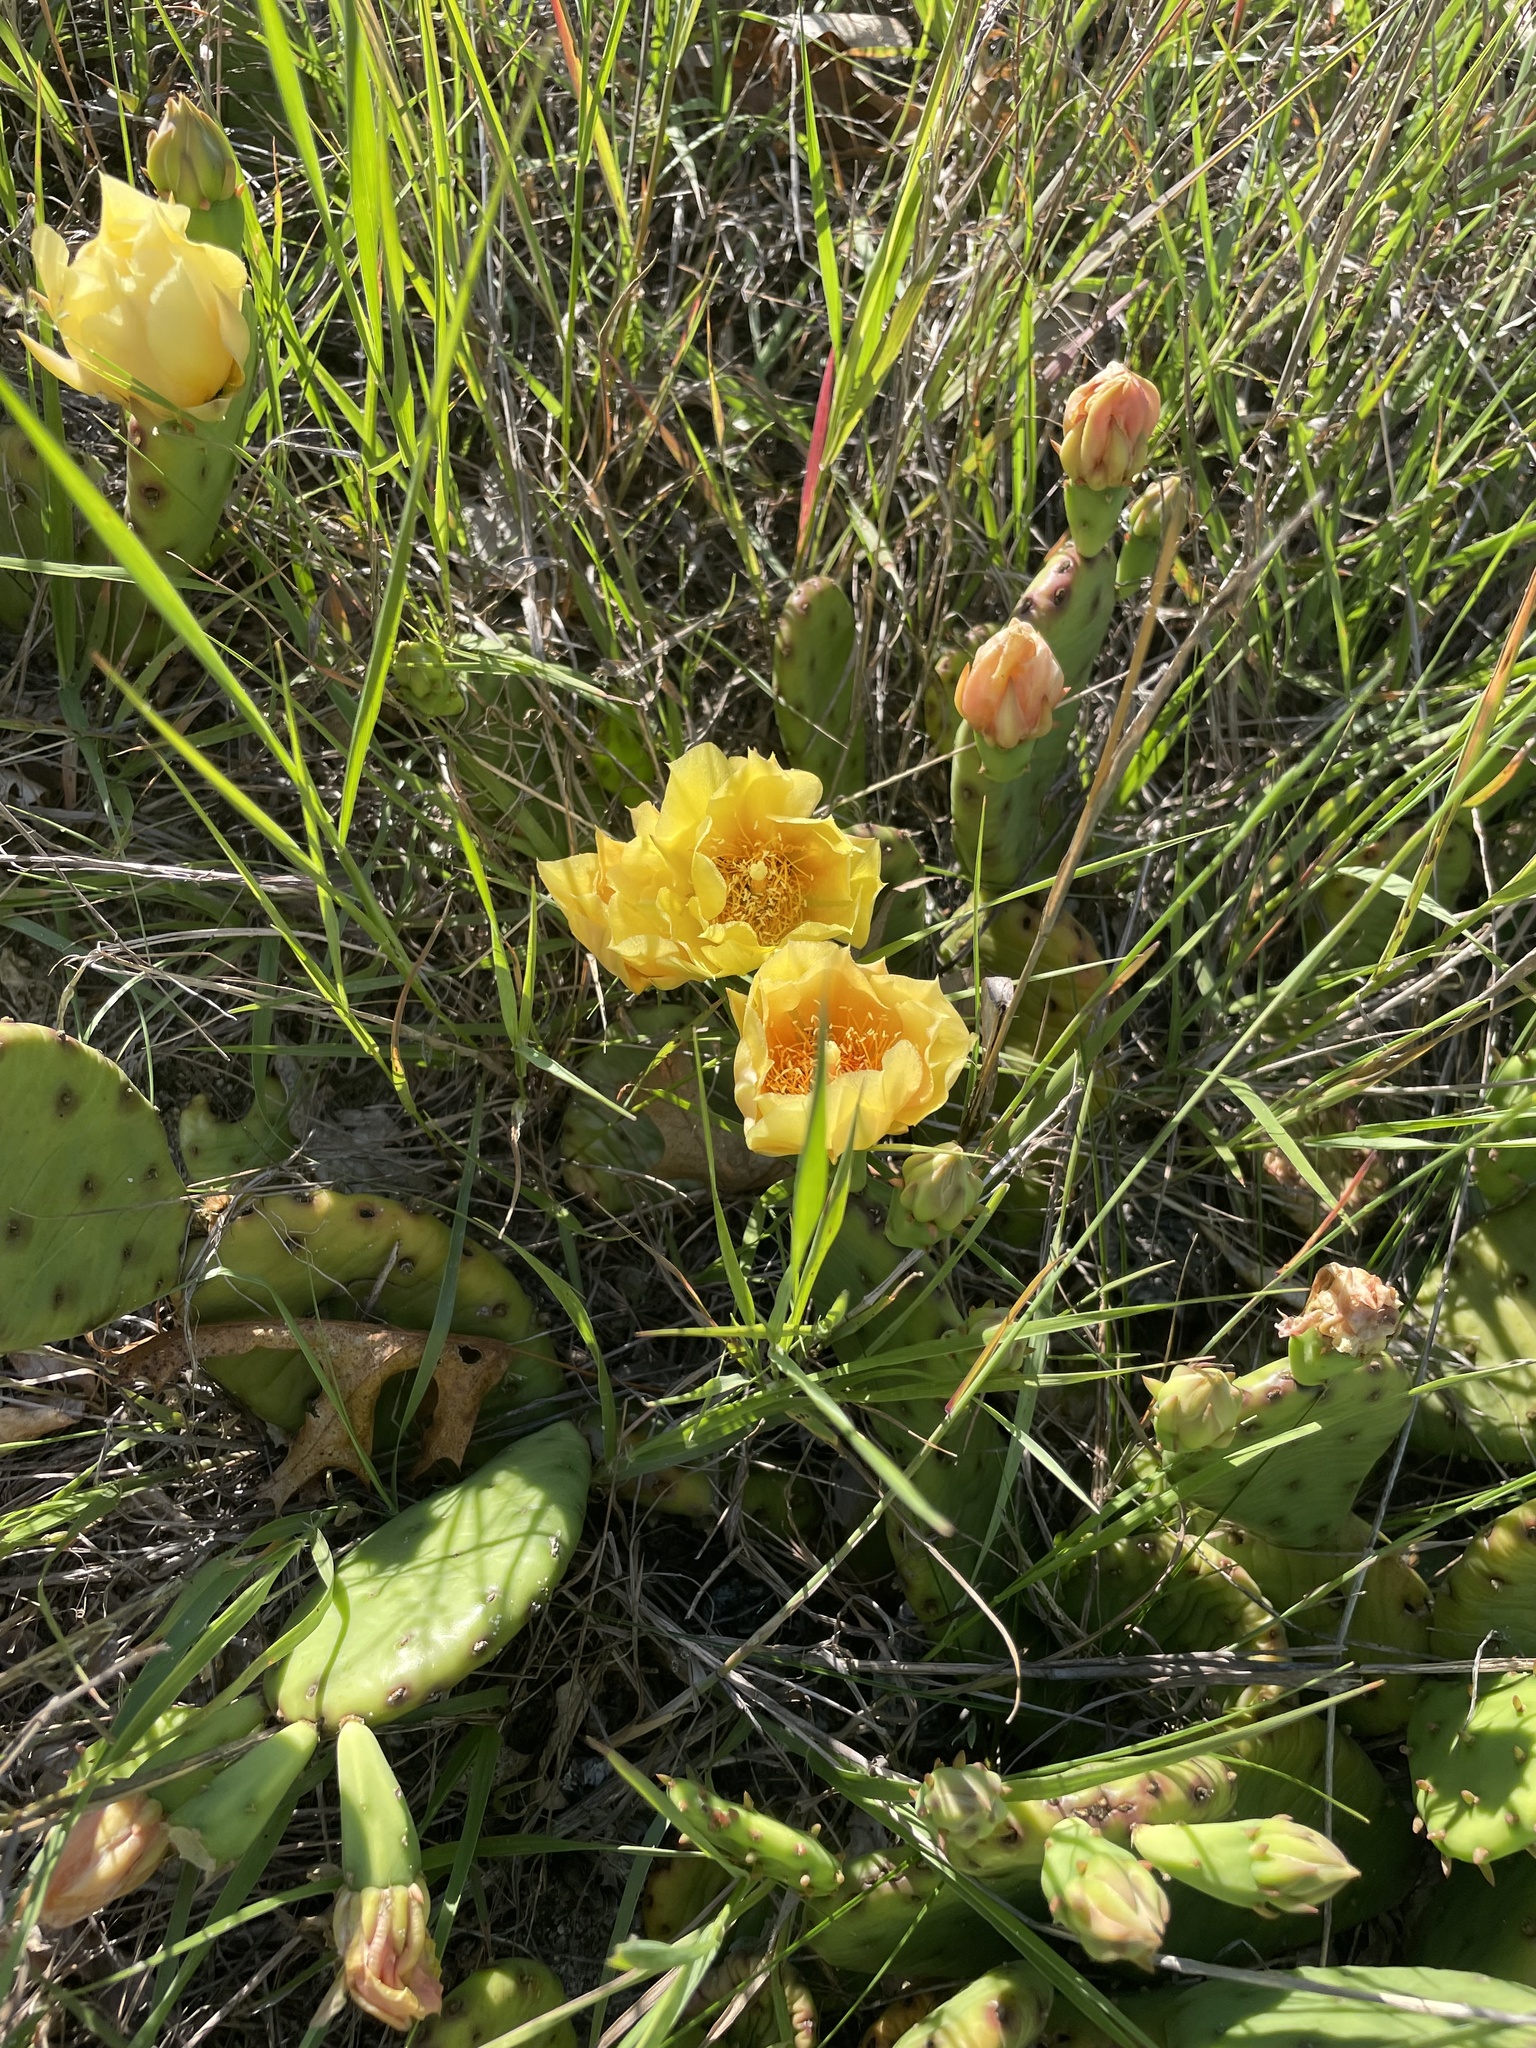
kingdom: Plantae
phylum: Tracheophyta
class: Magnoliopsida
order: Caryophyllales
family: Cactaceae
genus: Opuntia
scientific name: Opuntia humifusa
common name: Eastern prickly-pear
